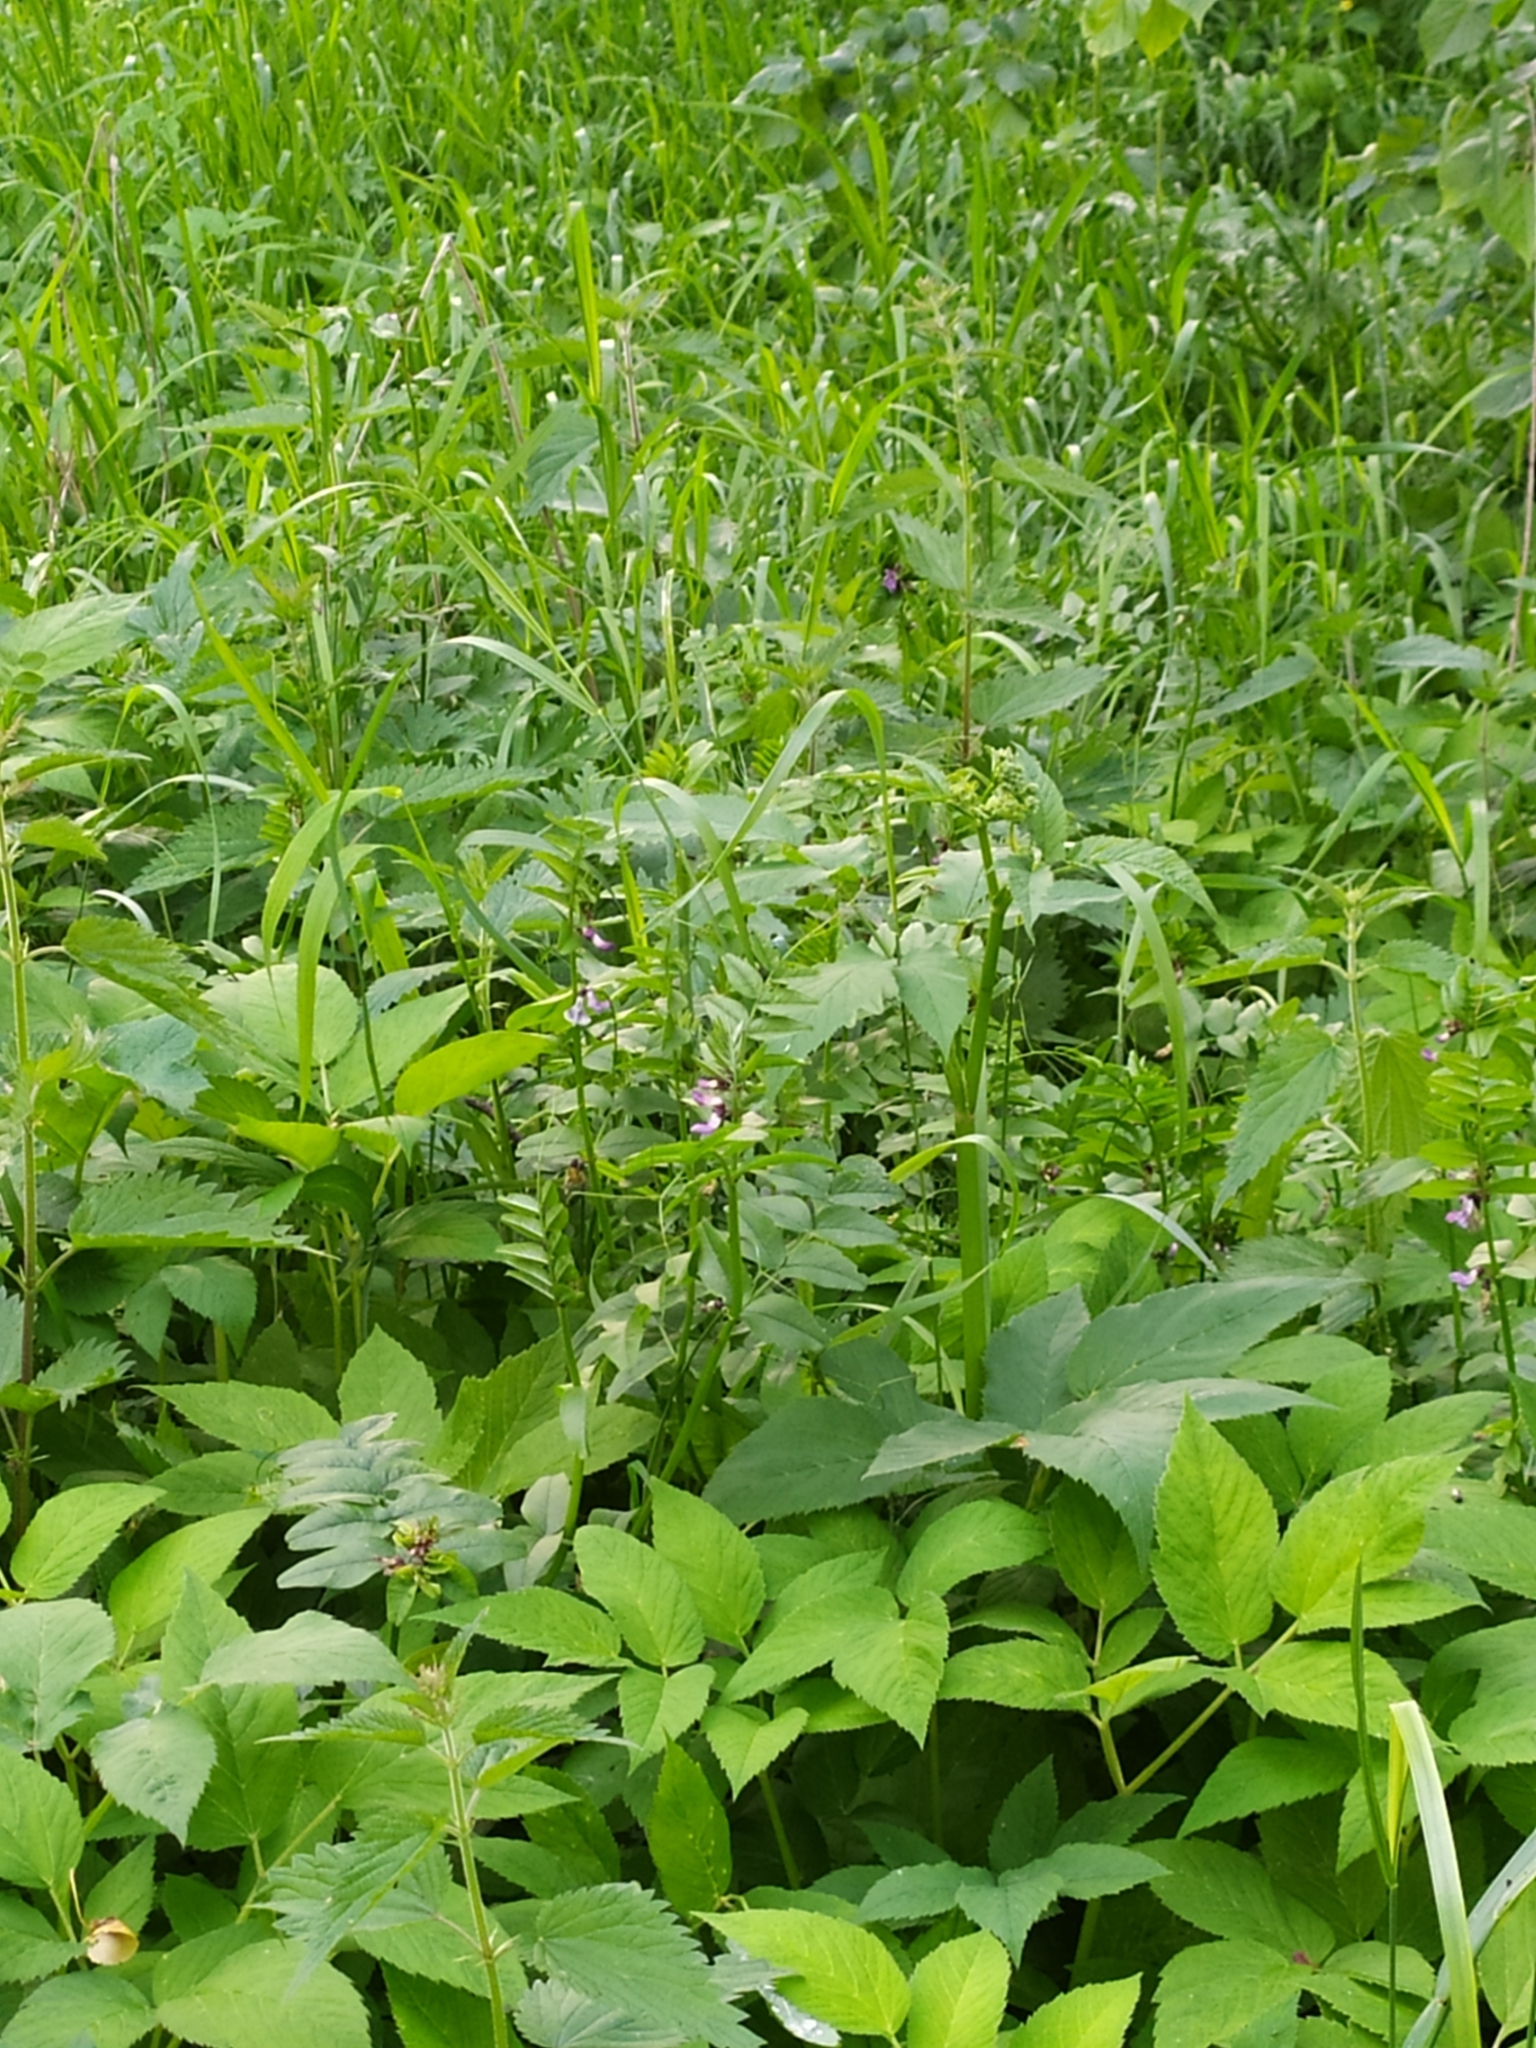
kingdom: Plantae
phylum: Tracheophyta
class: Magnoliopsida
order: Fabales
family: Fabaceae
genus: Vicia
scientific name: Vicia sepium
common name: Bush vetch
